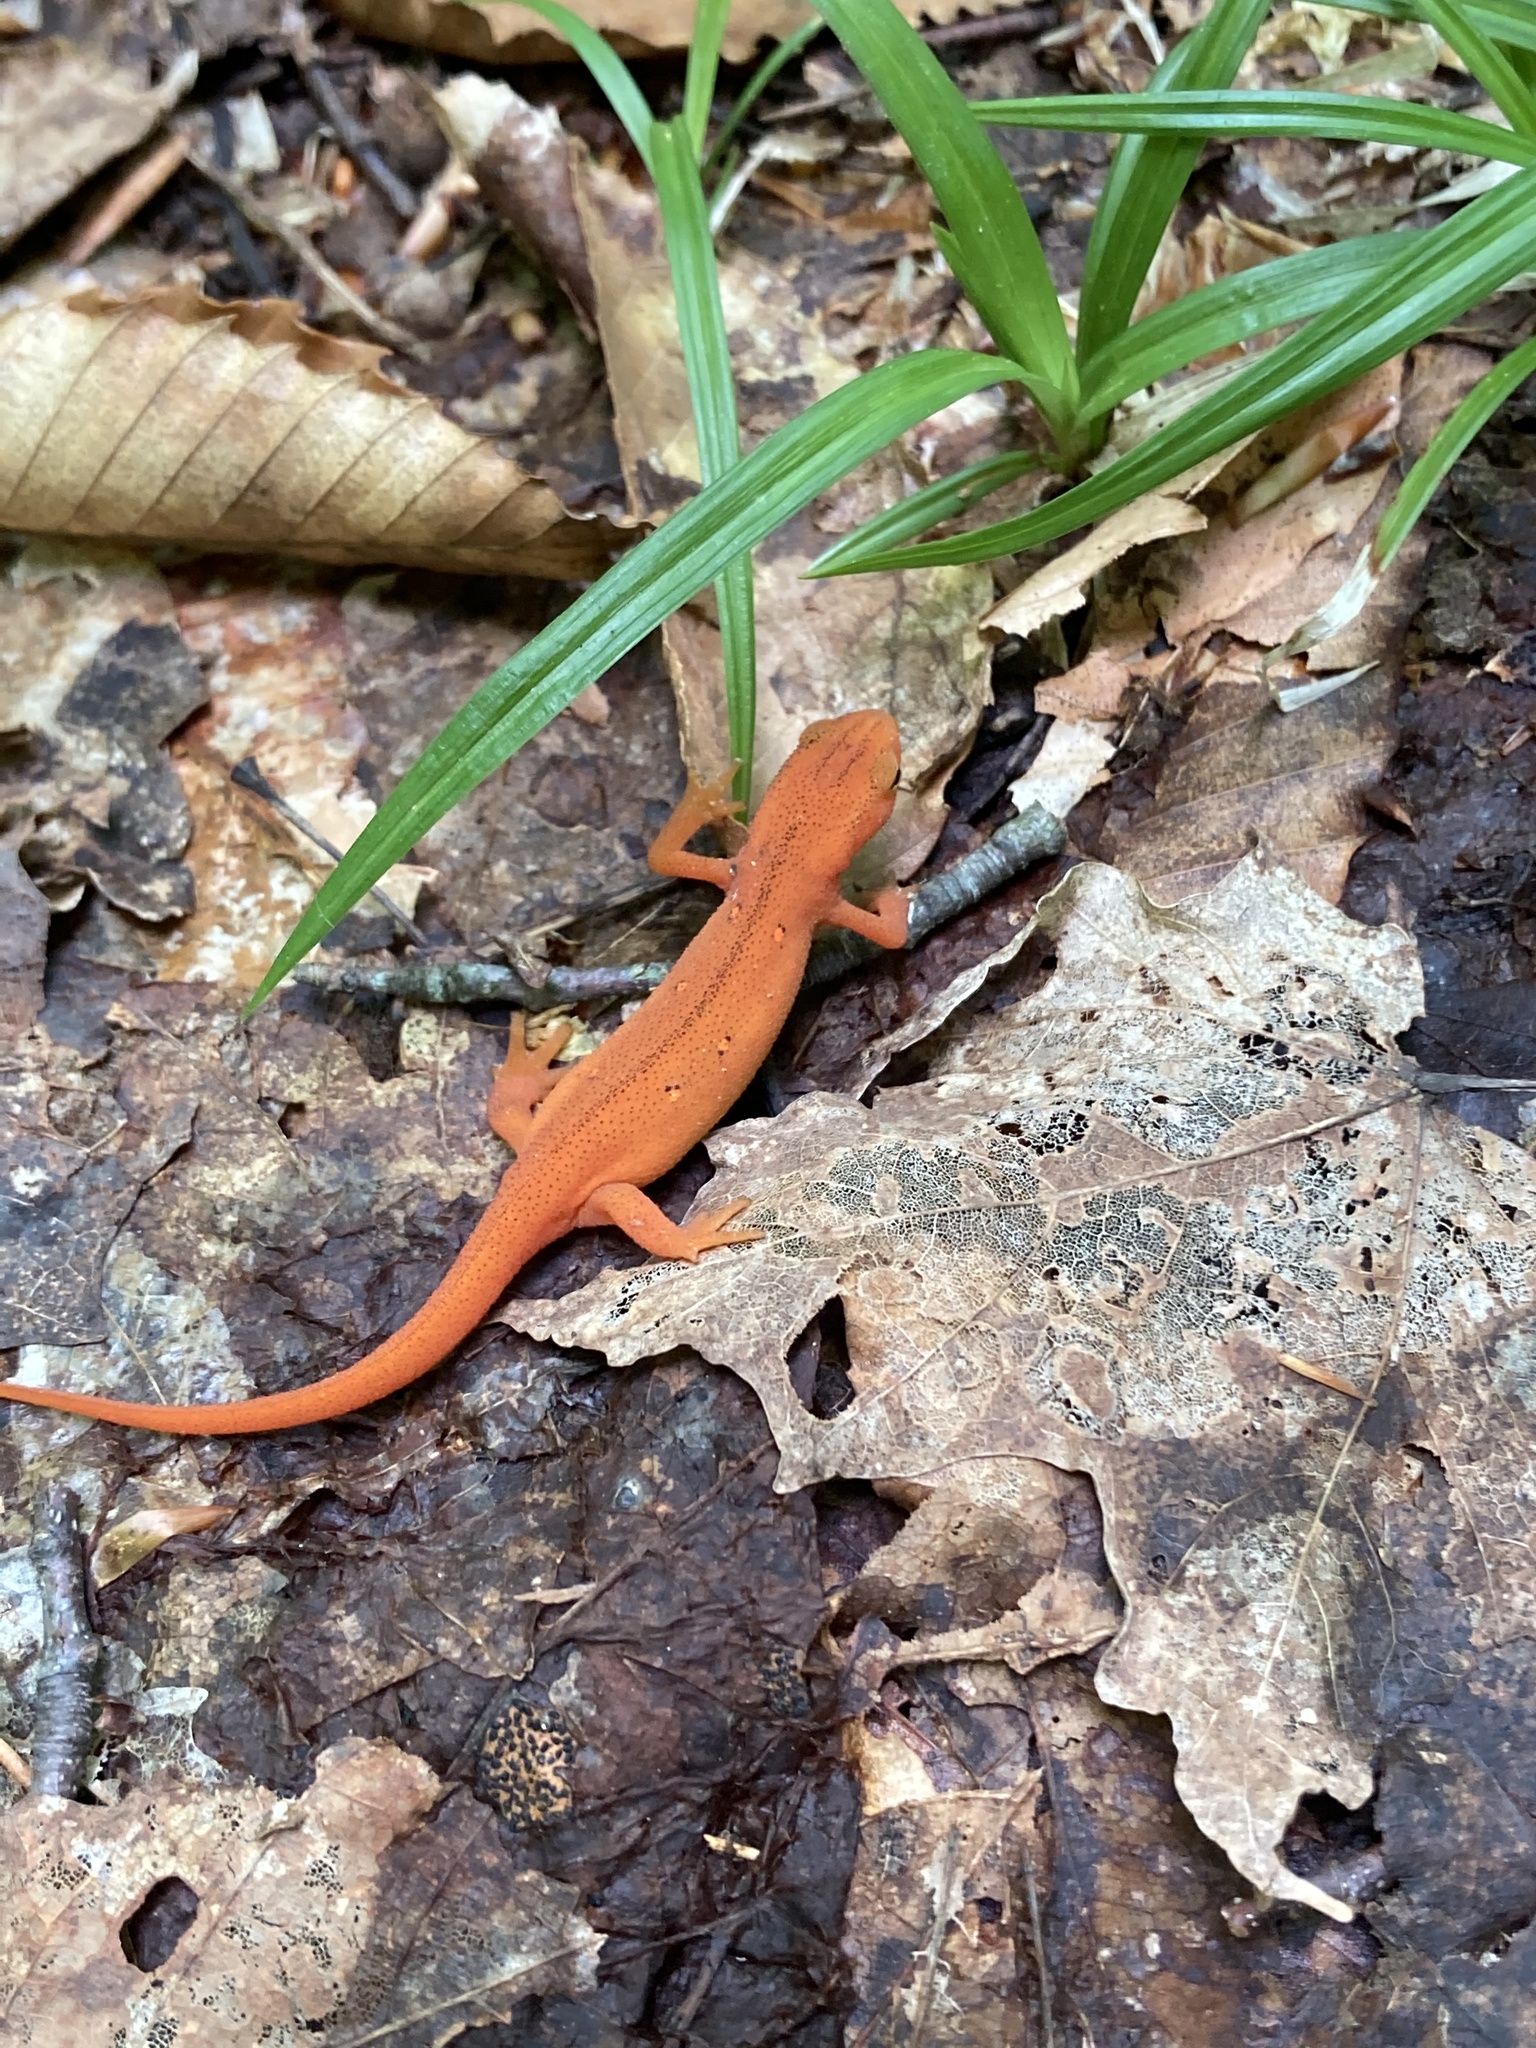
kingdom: Animalia
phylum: Chordata
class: Amphibia
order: Caudata
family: Salamandridae
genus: Notophthalmus
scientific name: Notophthalmus viridescens
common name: Eastern newt
